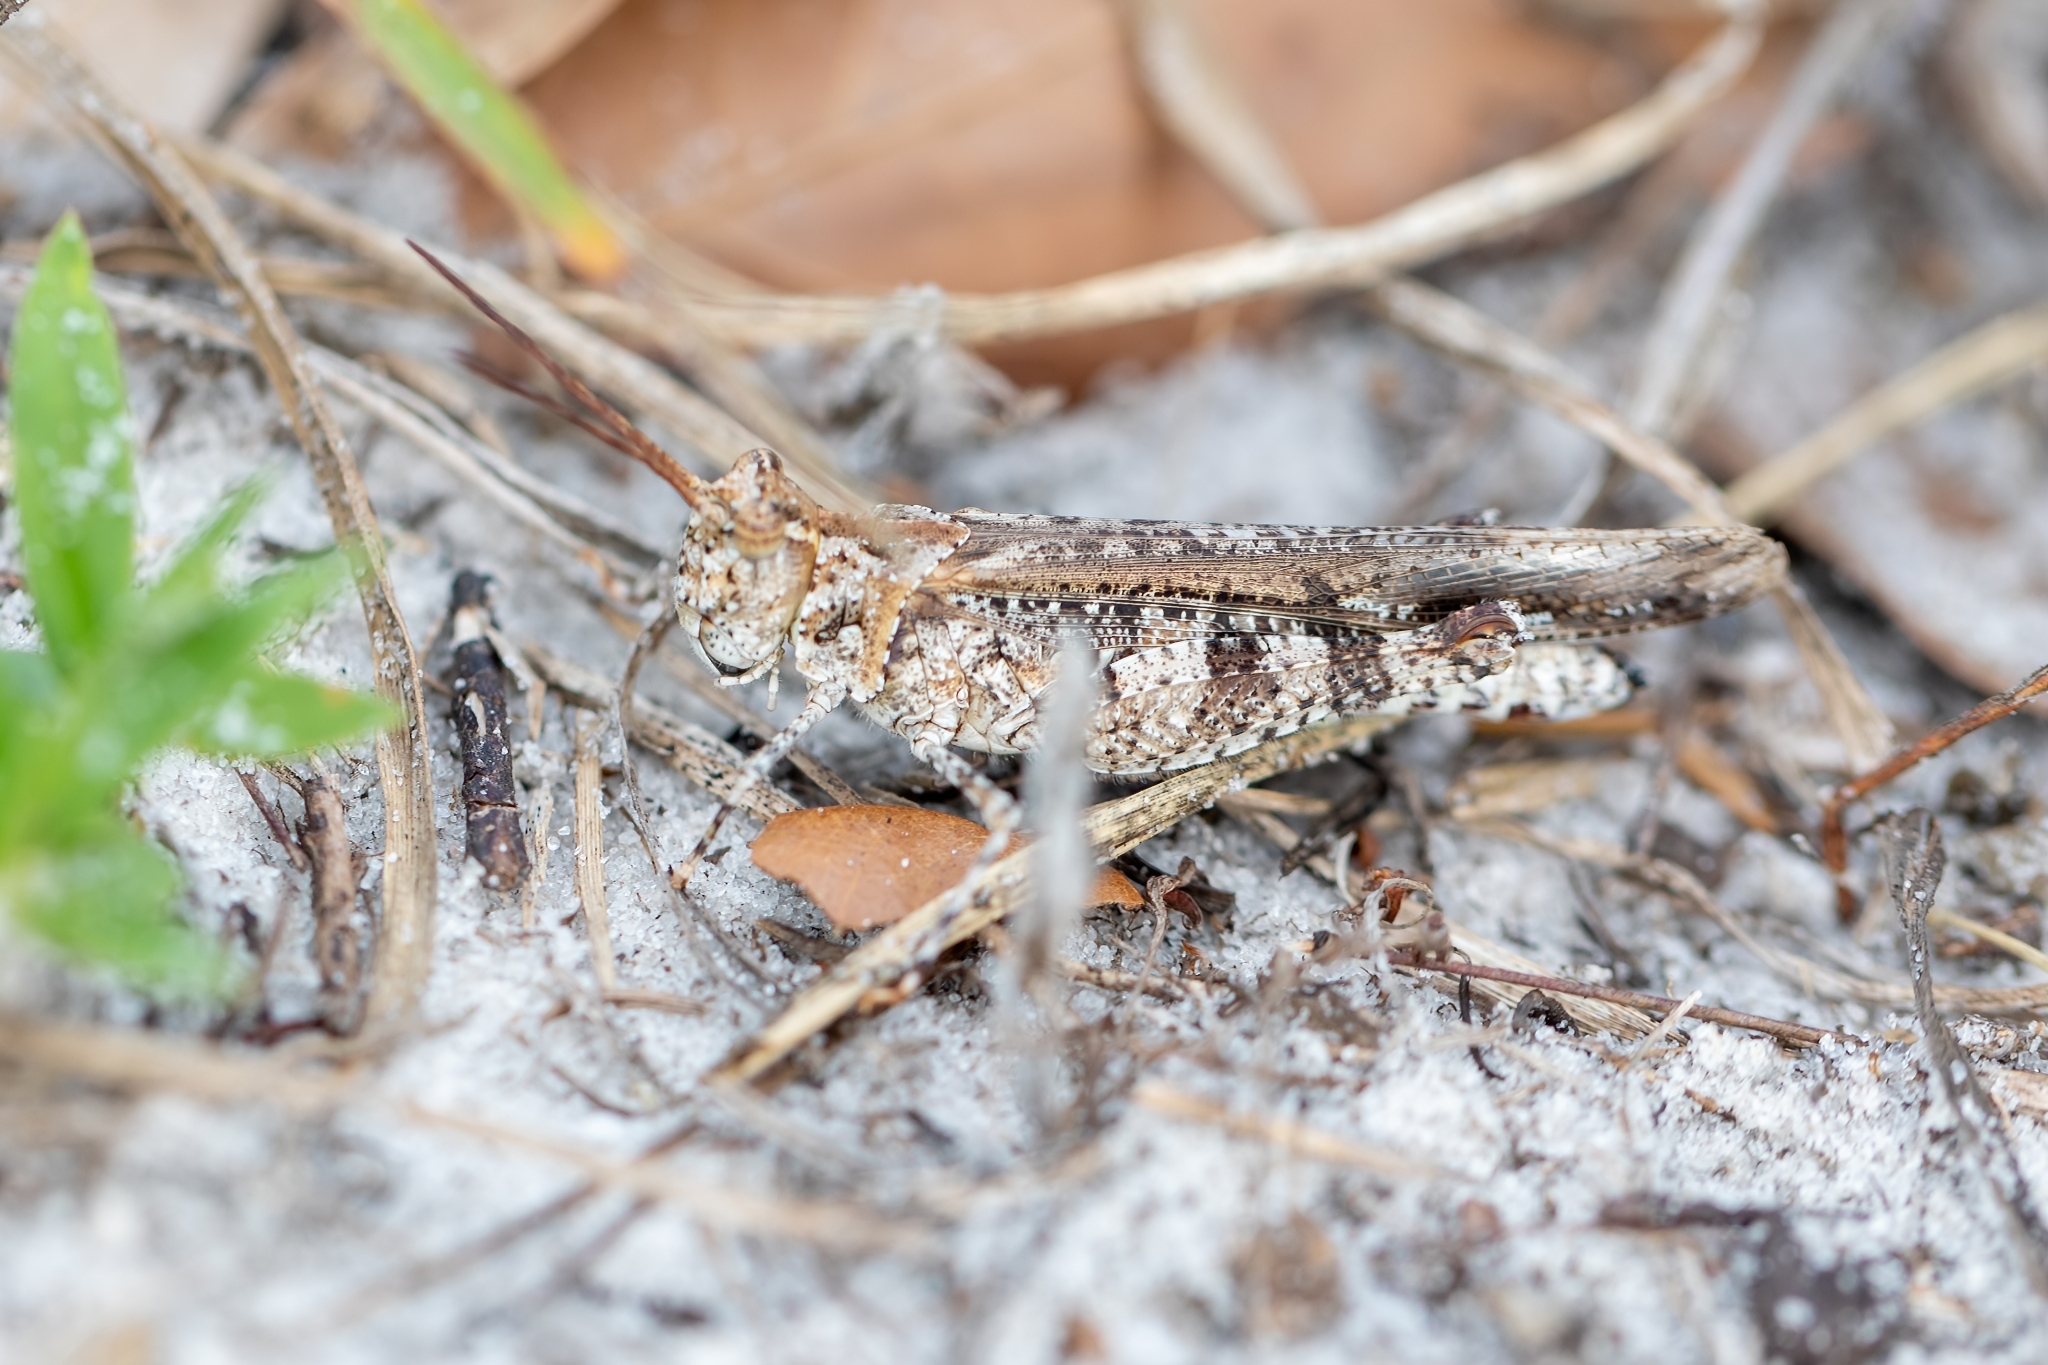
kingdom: Animalia
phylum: Arthropoda
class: Insecta
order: Orthoptera
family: Acrididae
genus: Psinidia
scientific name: Psinidia fenestralis
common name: Long-horned locust
